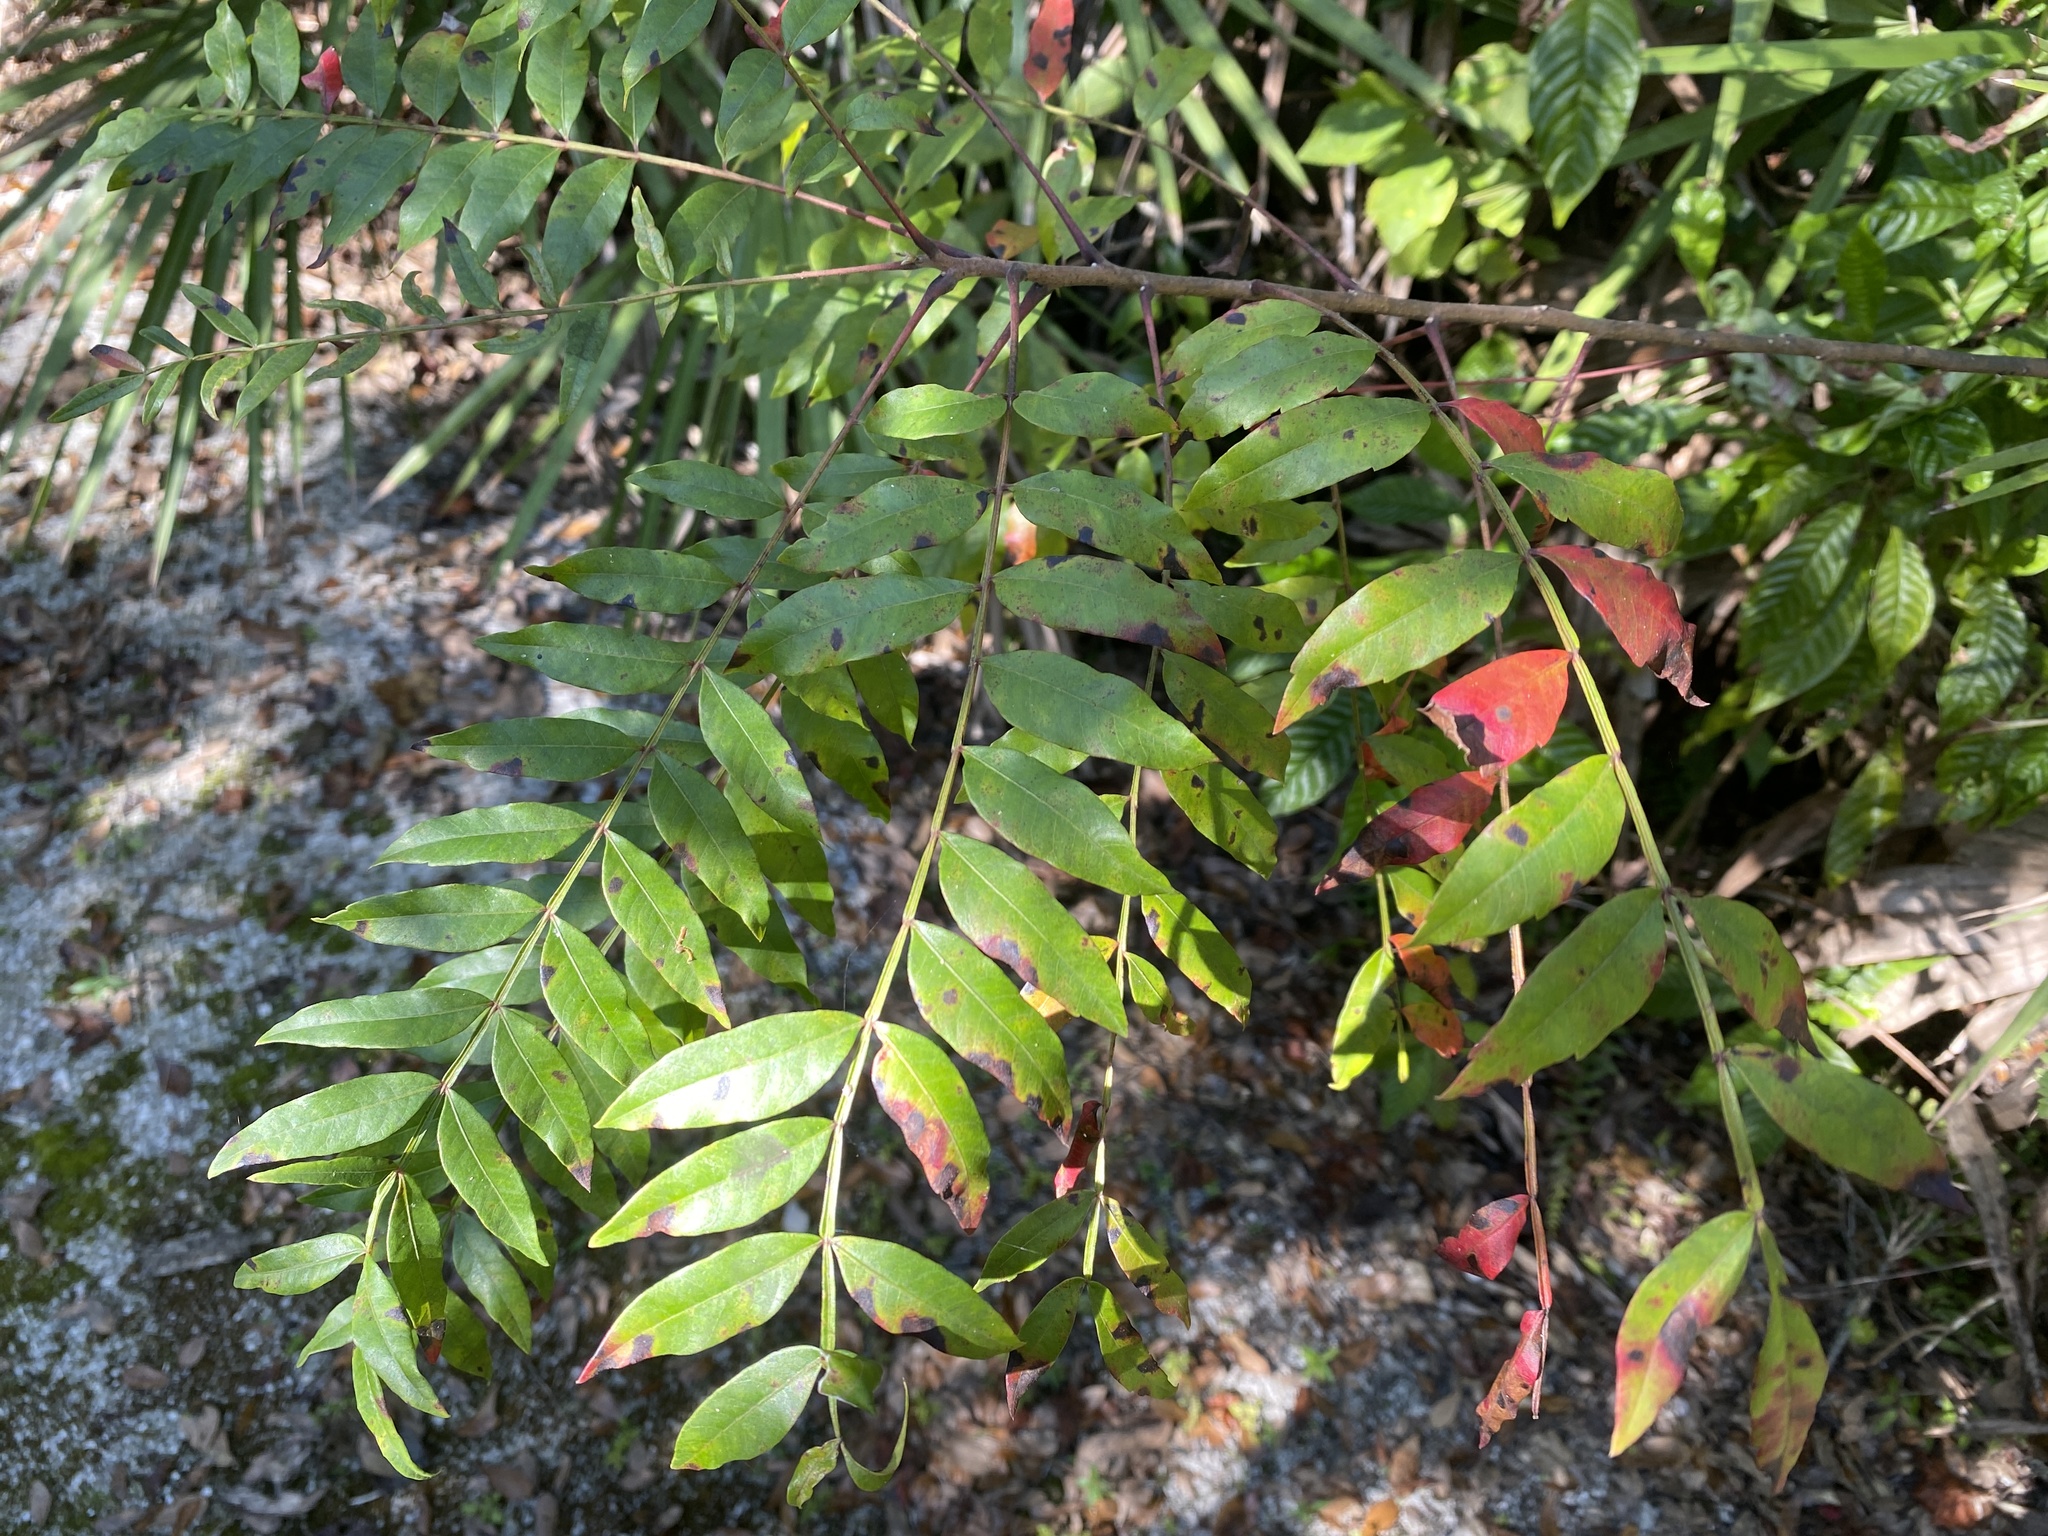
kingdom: Plantae
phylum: Tracheophyta
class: Magnoliopsida
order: Sapindales
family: Anacardiaceae
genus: Rhus
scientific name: Rhus copallina
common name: Shining sumac
